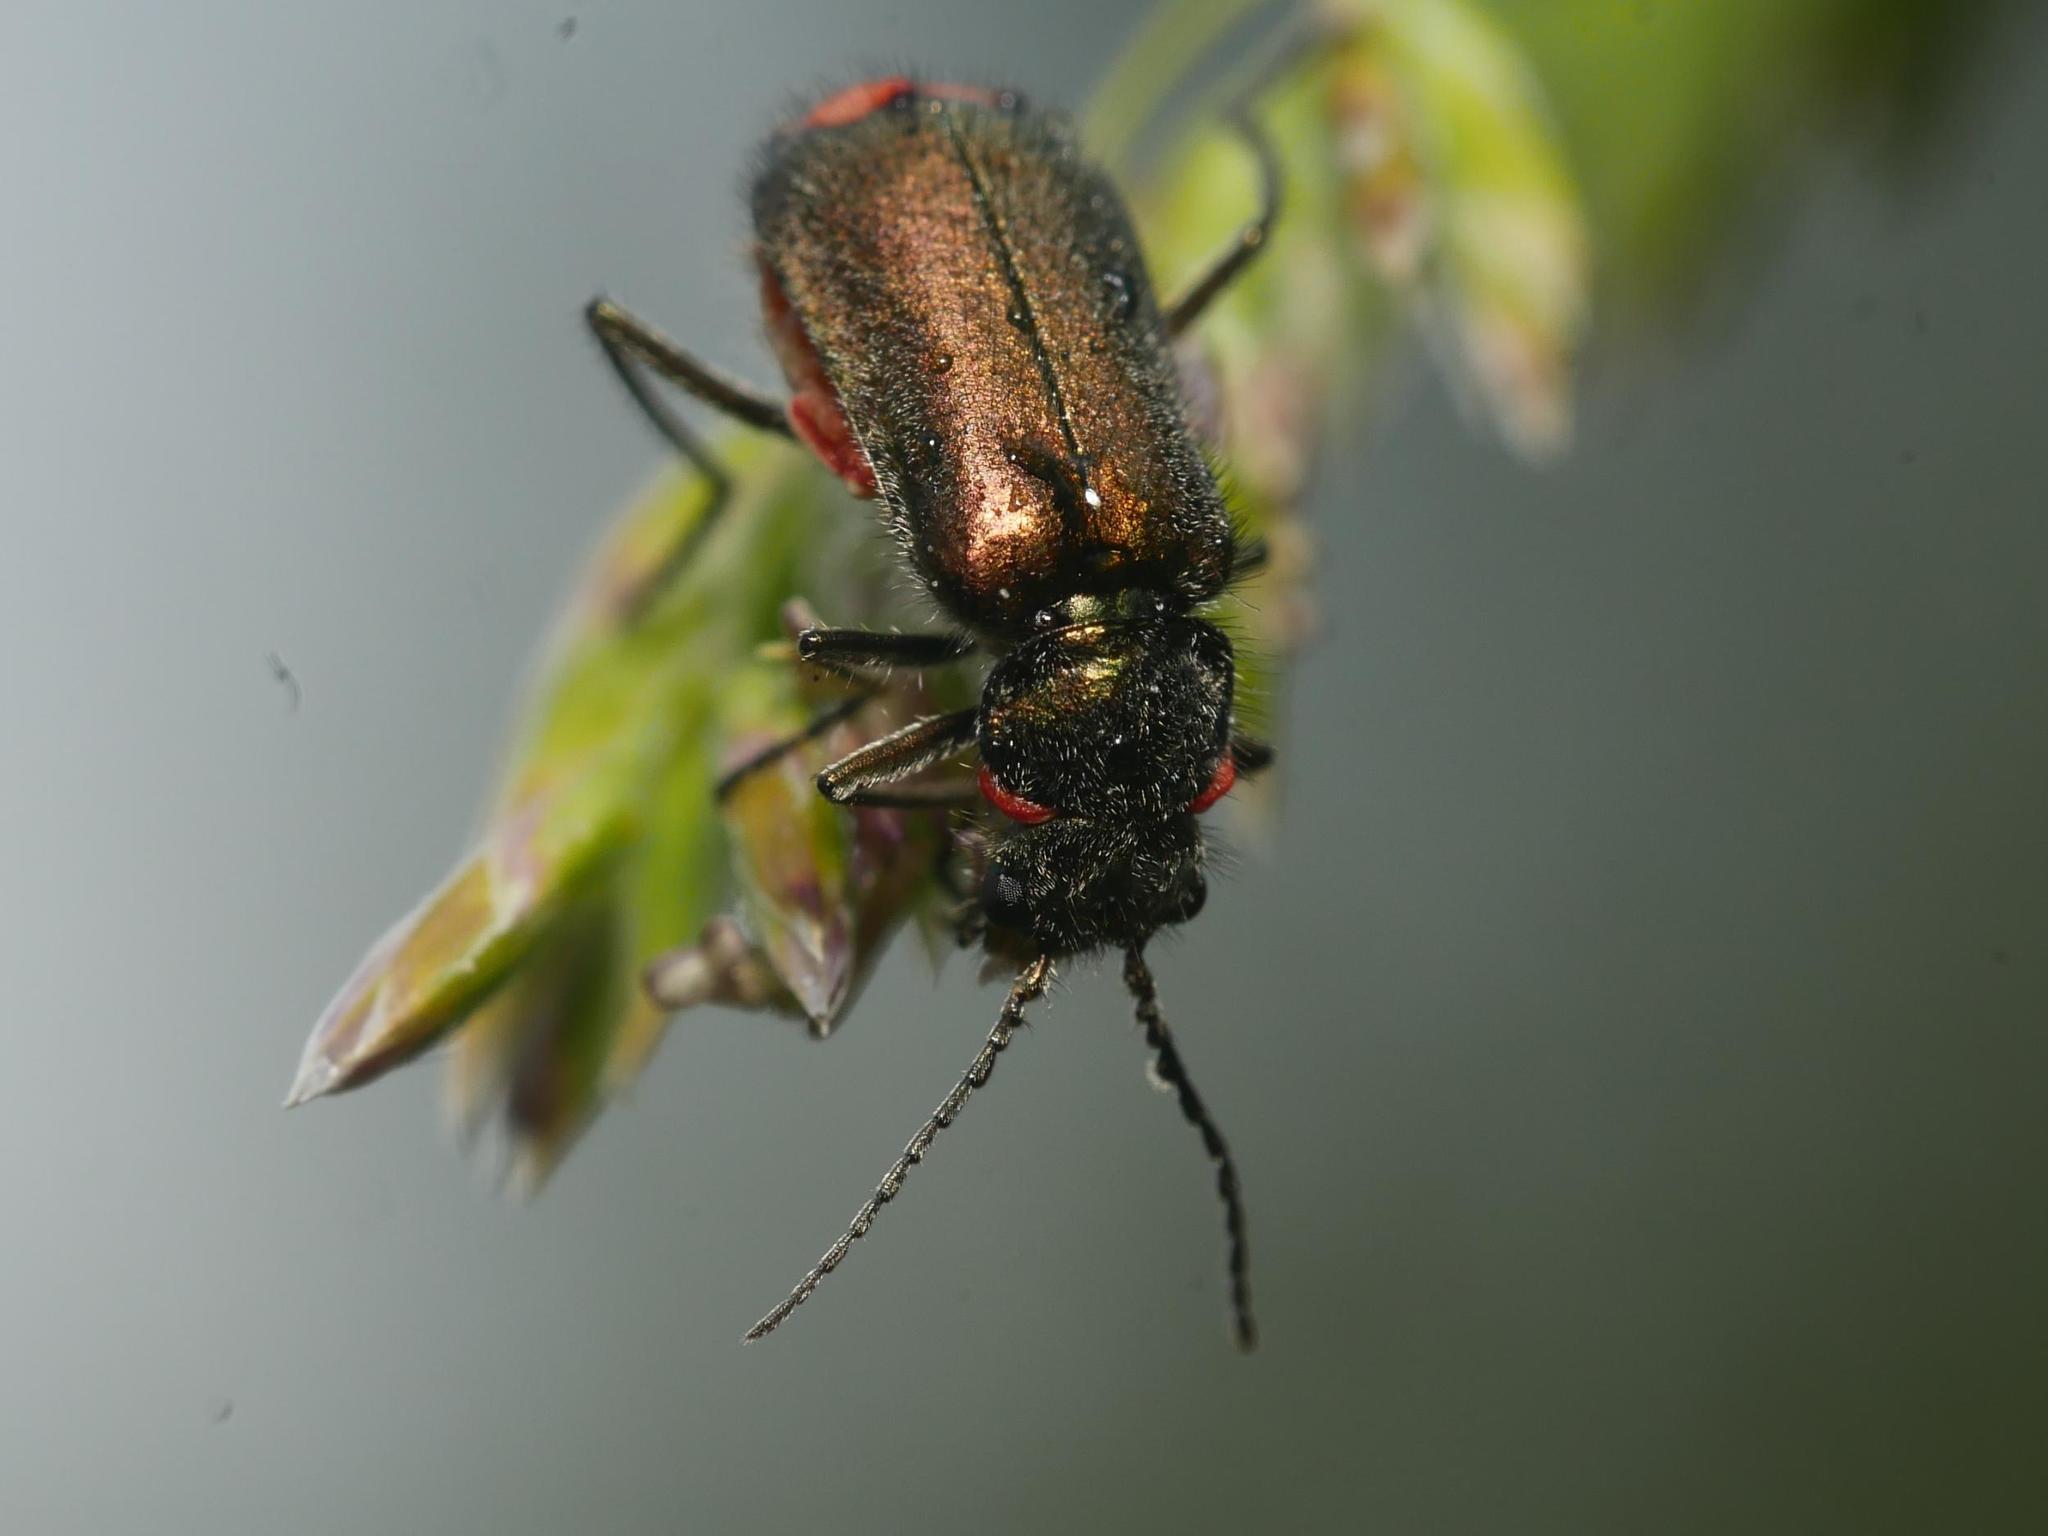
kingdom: Animalia
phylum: Arthropoda
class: Insecta
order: Coleoptera
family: Melyridae
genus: Malachius
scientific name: Malachius bipustulatus
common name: Malachite beetle
